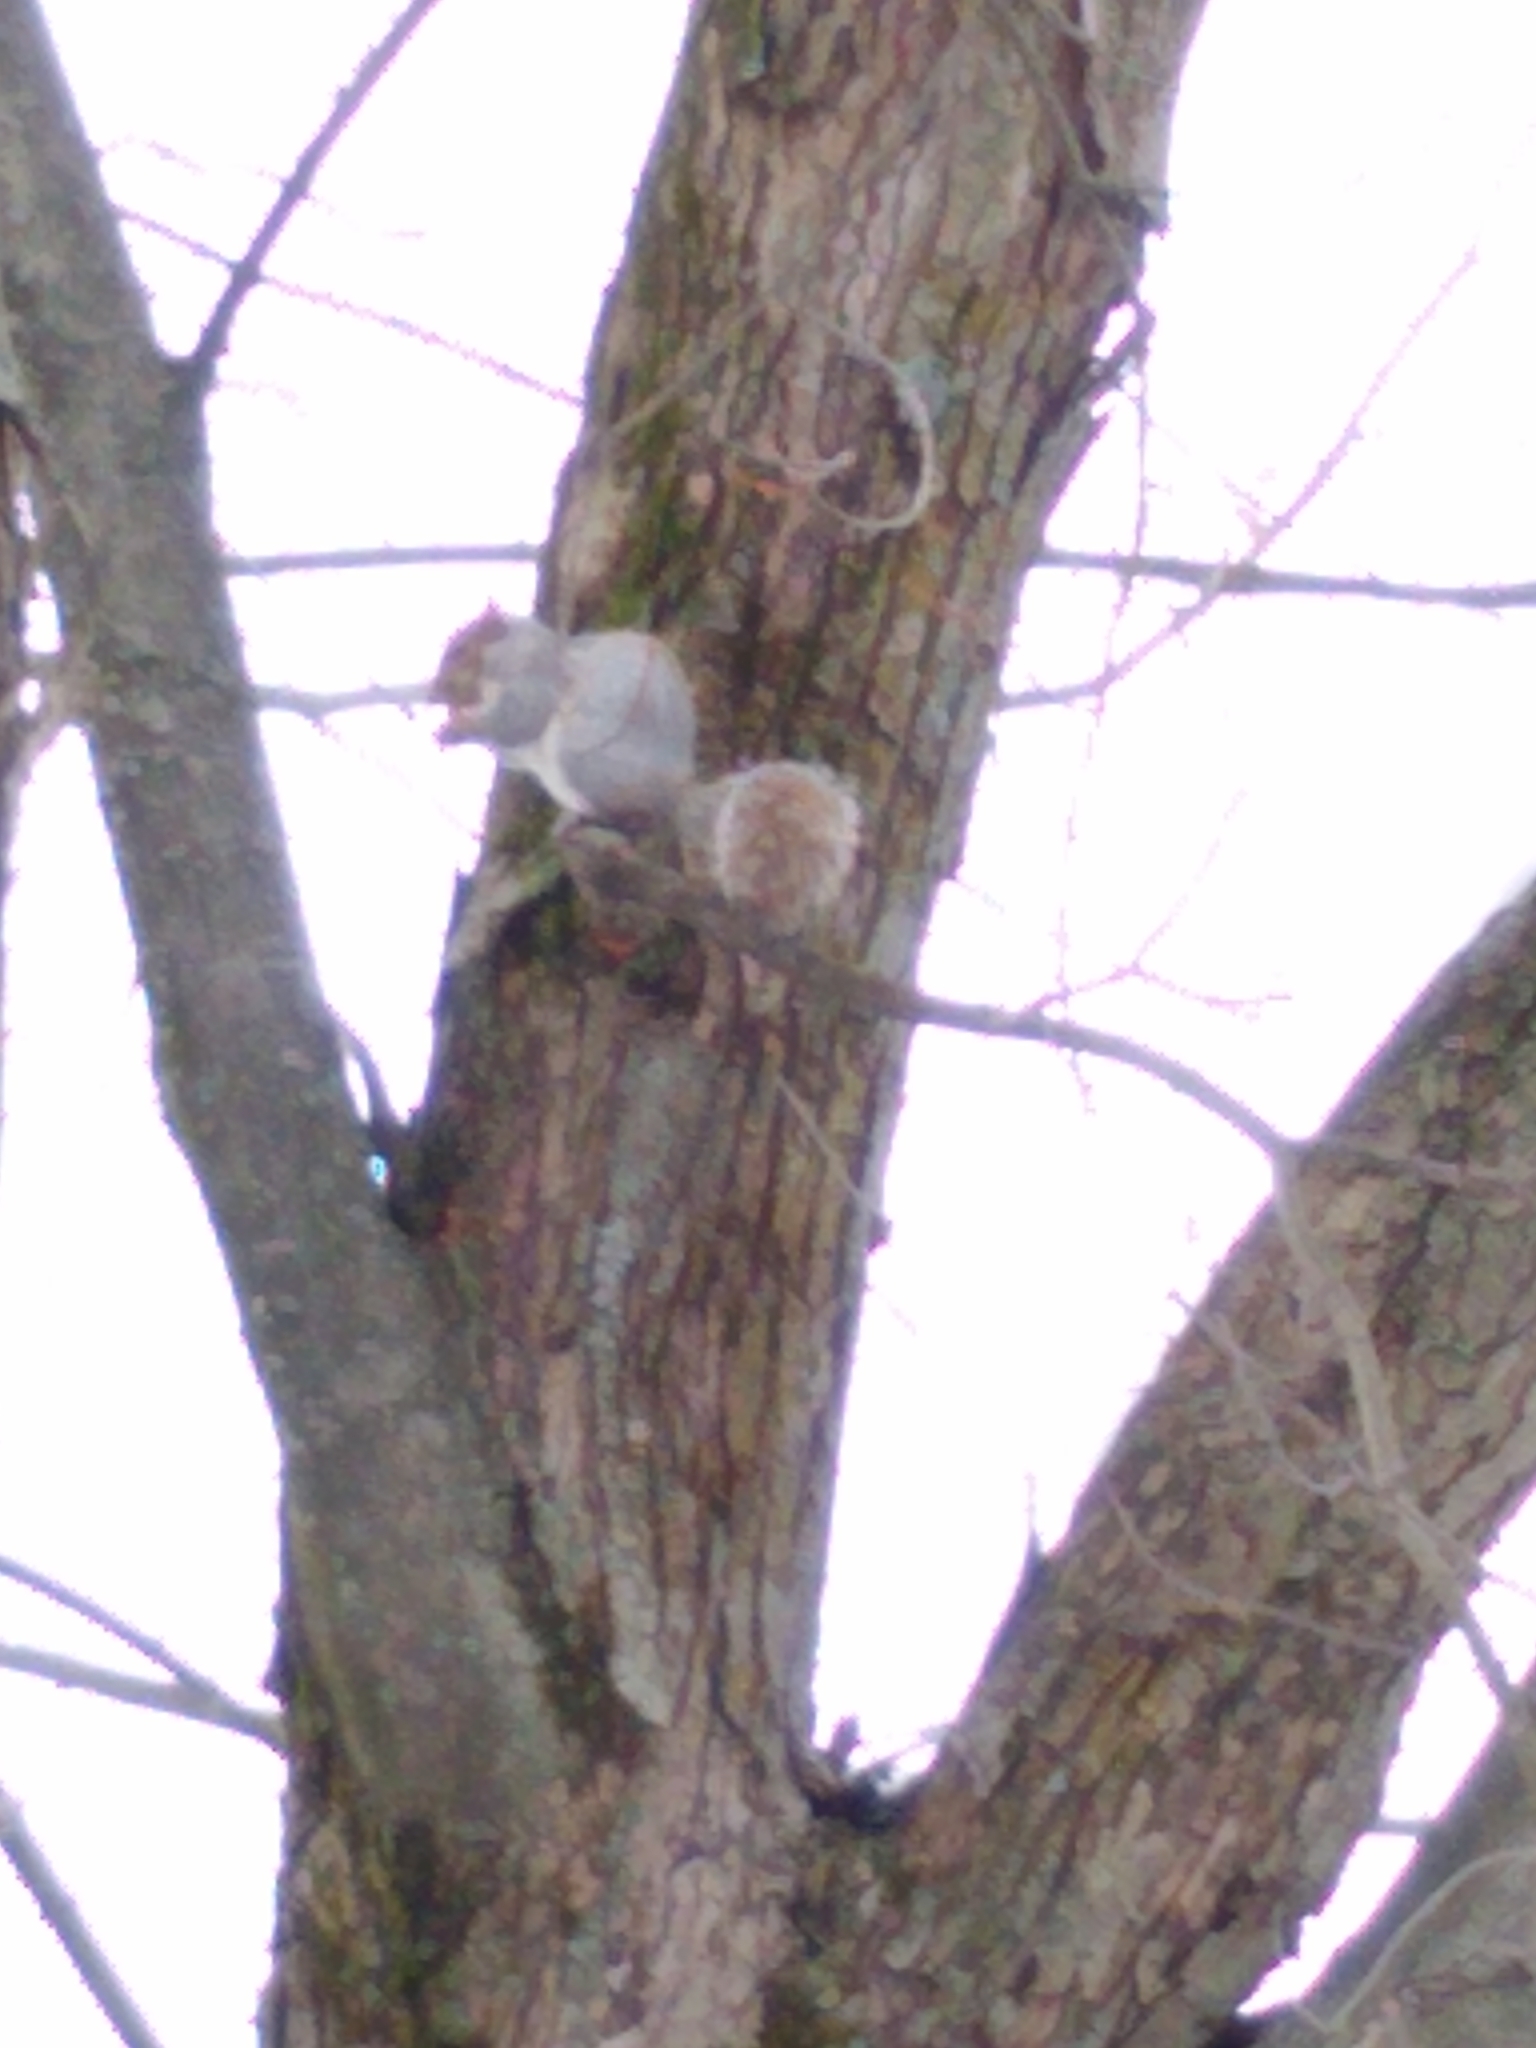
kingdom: Animalia
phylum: Chordata
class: Mammalia
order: Rodentia
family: Sciuridae
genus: Sciurus
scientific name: Sciurus carolinensis
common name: Eastern gray squirrel
